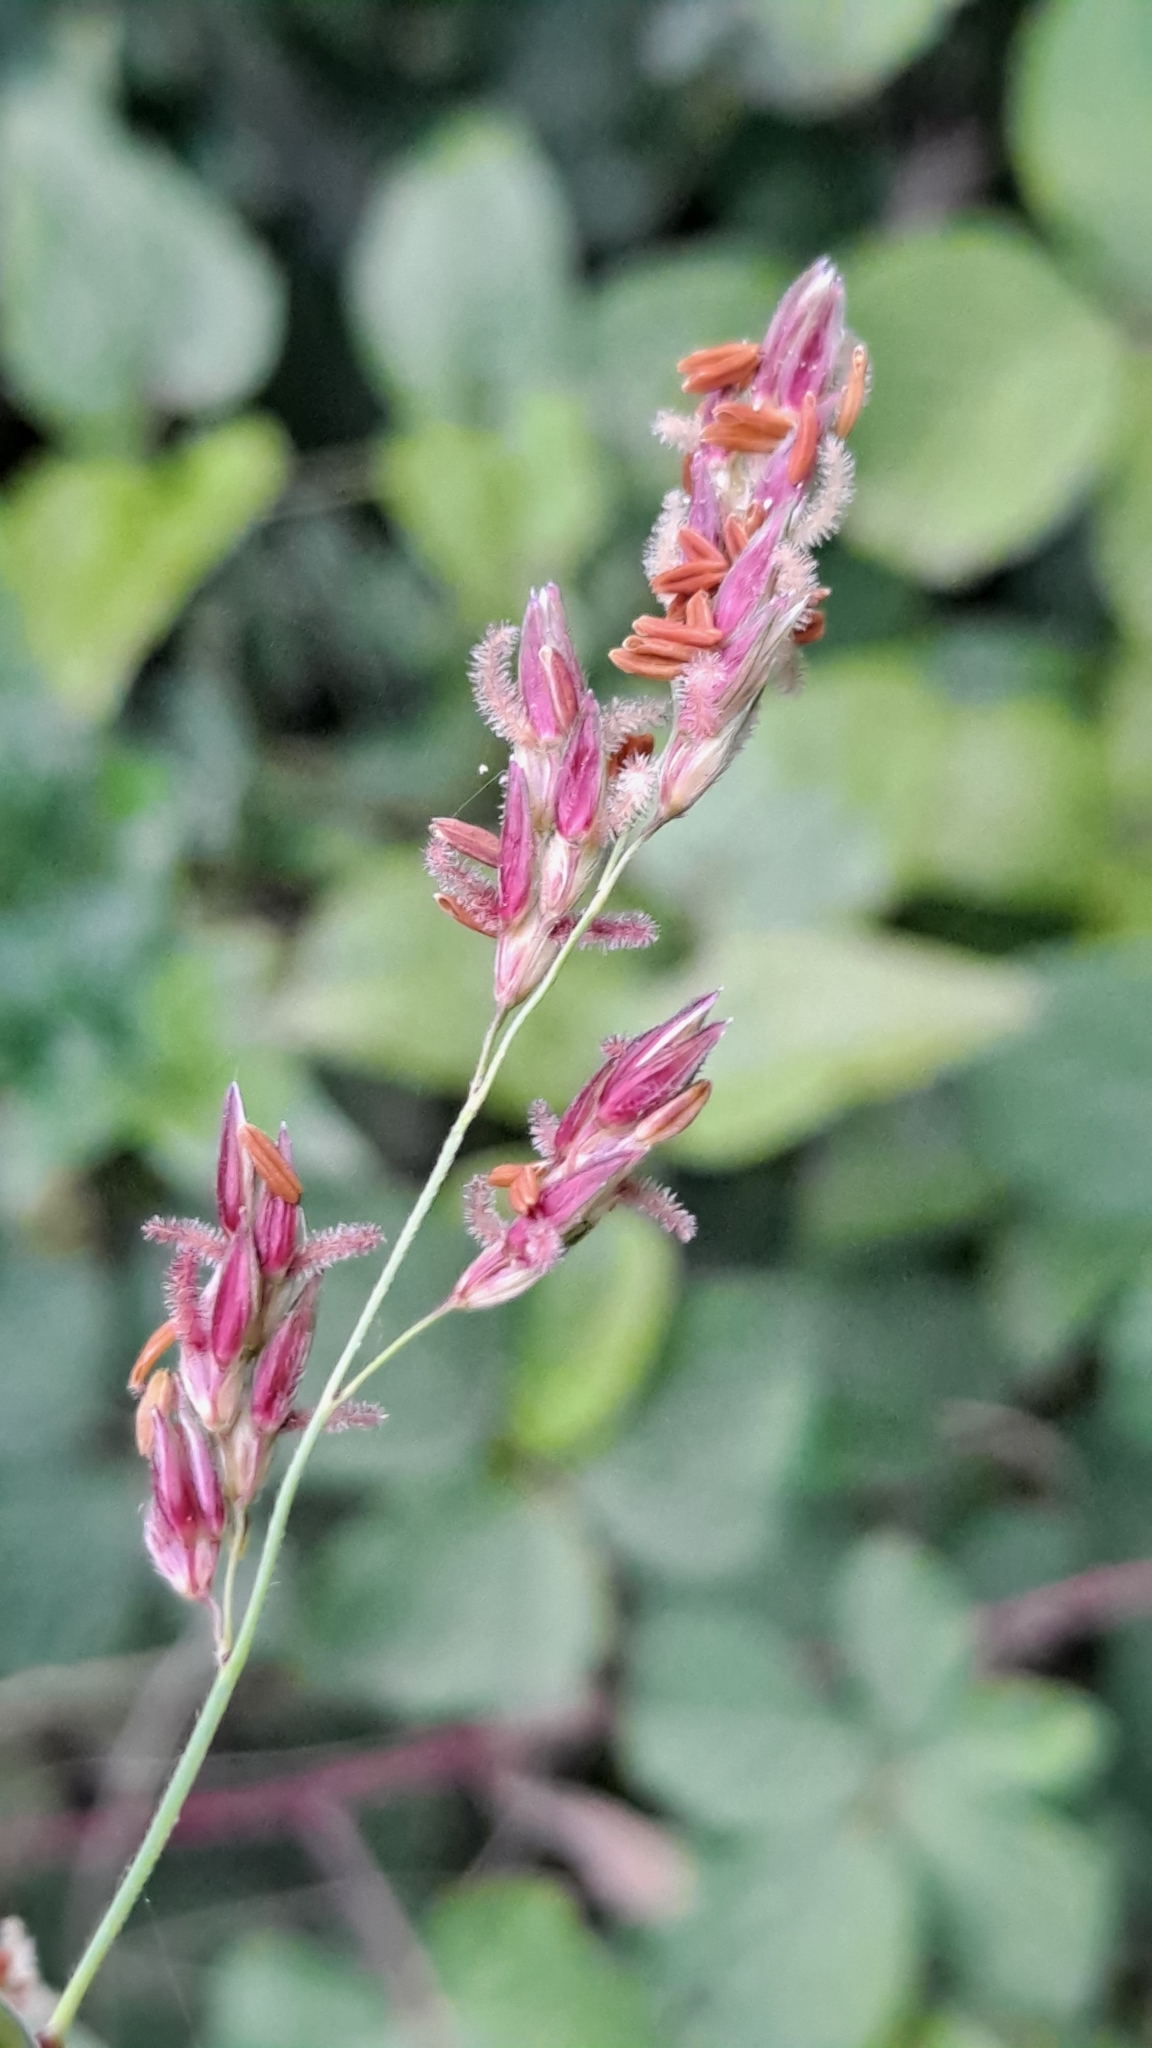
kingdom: Plantae
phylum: Tracheophyta
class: Liliopsida
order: Poales
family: Poaceae
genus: Sorghum
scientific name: Sorghum halepense
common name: Johnson-grass
